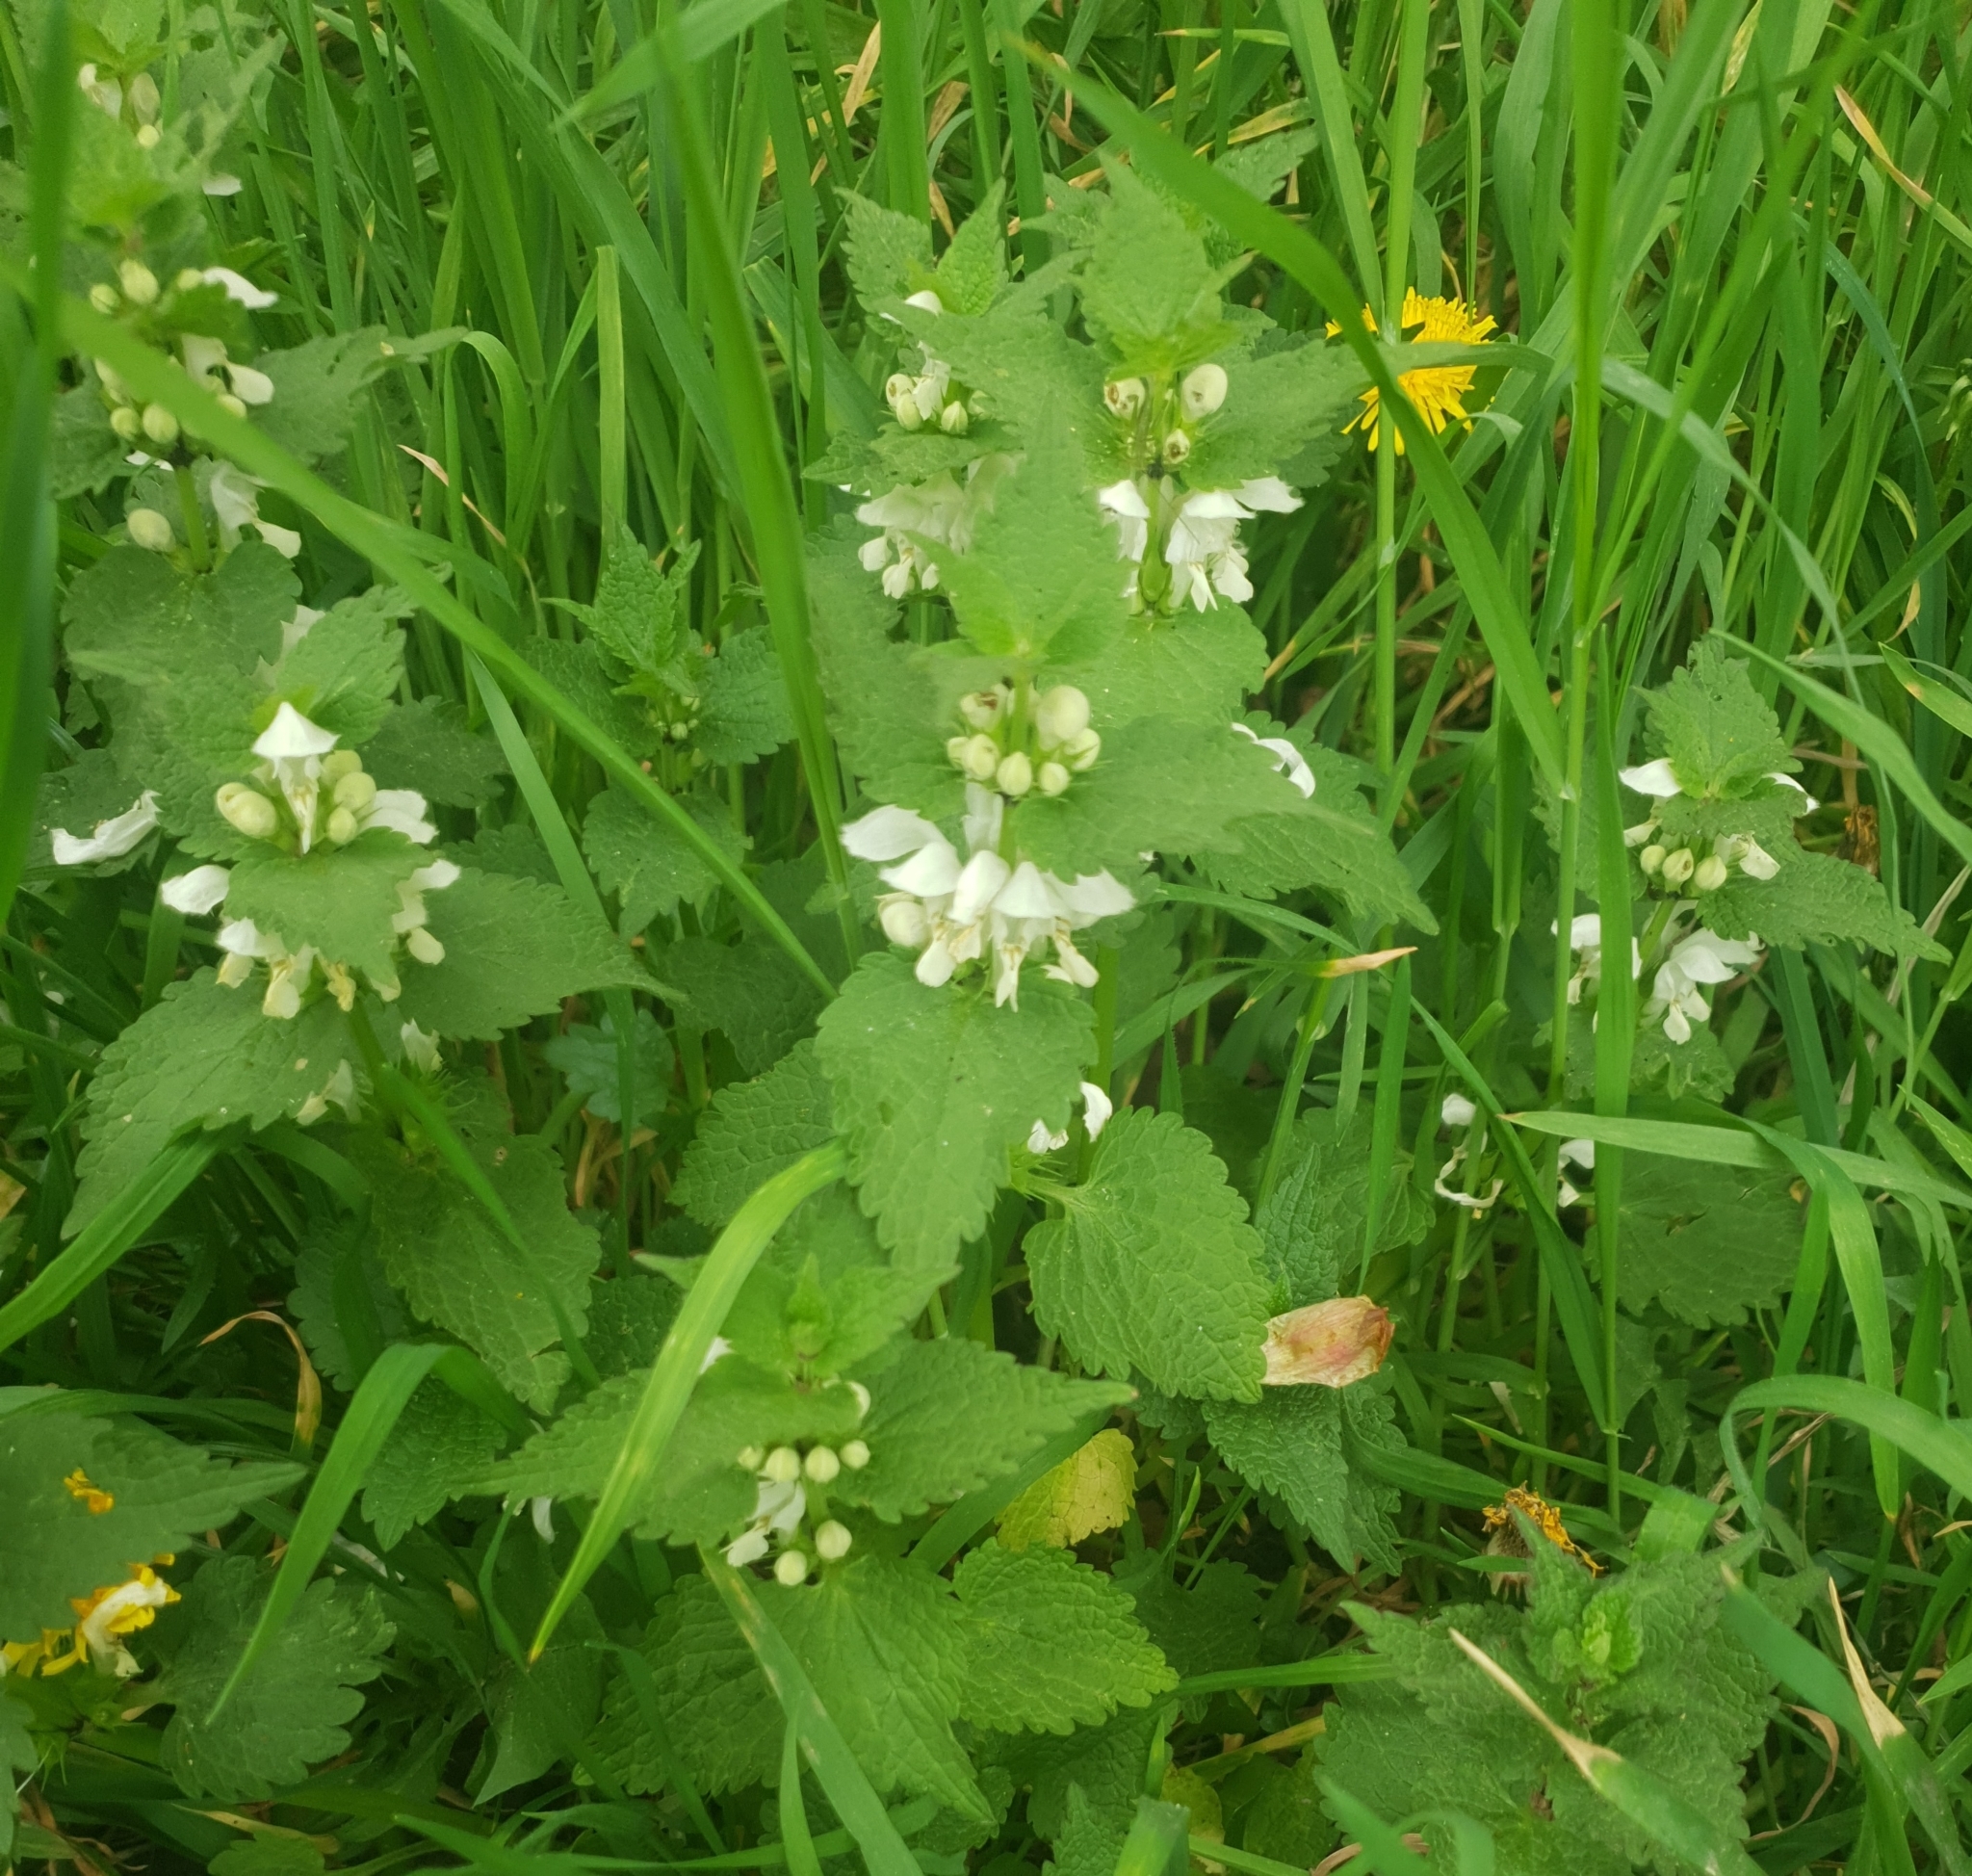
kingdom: Plantae
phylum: Tracheophyta
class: Magnoliopsida
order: Lamiales
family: Lamiaceae
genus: Lamium
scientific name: Lamium album
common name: White dead-nettle
